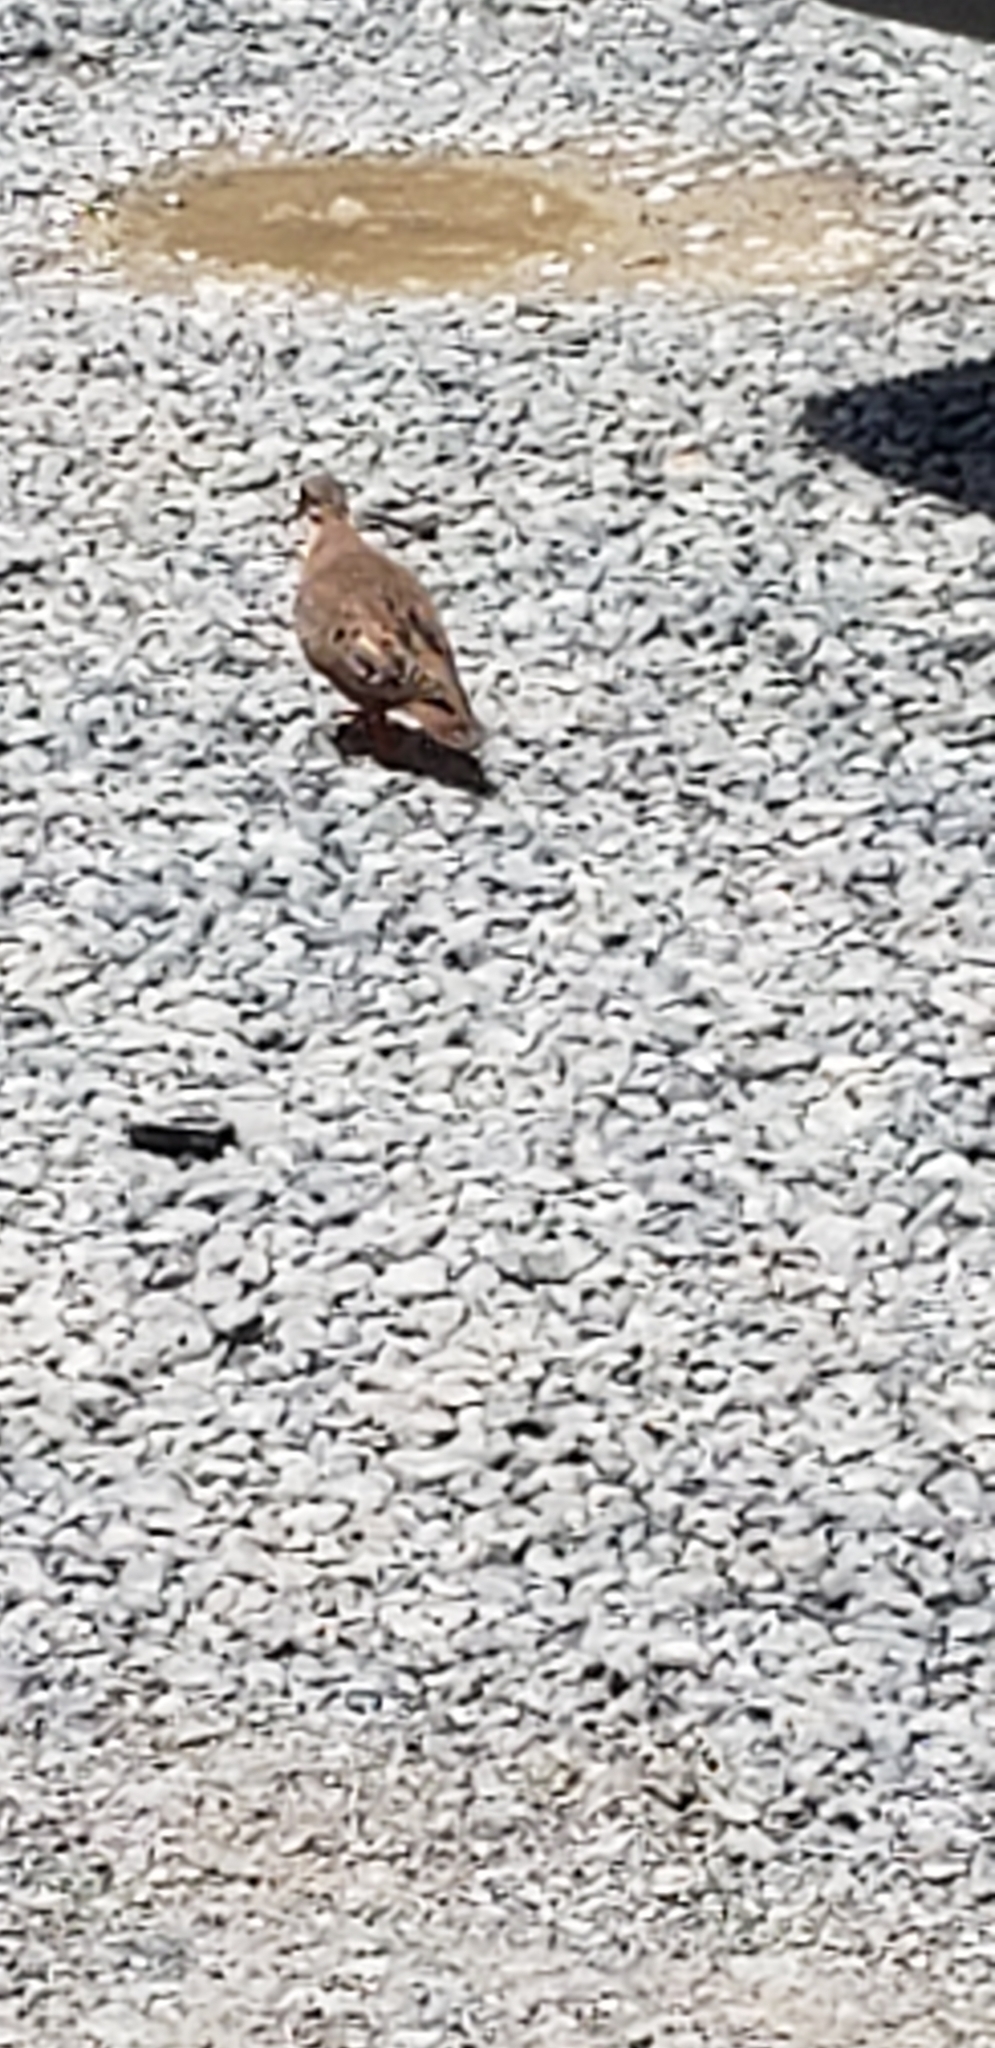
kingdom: Animalia
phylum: Chordata
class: Aves
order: Columbiformes
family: Columbidae
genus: Zenaida
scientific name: Zenaida aurita
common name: Zenaida dove
